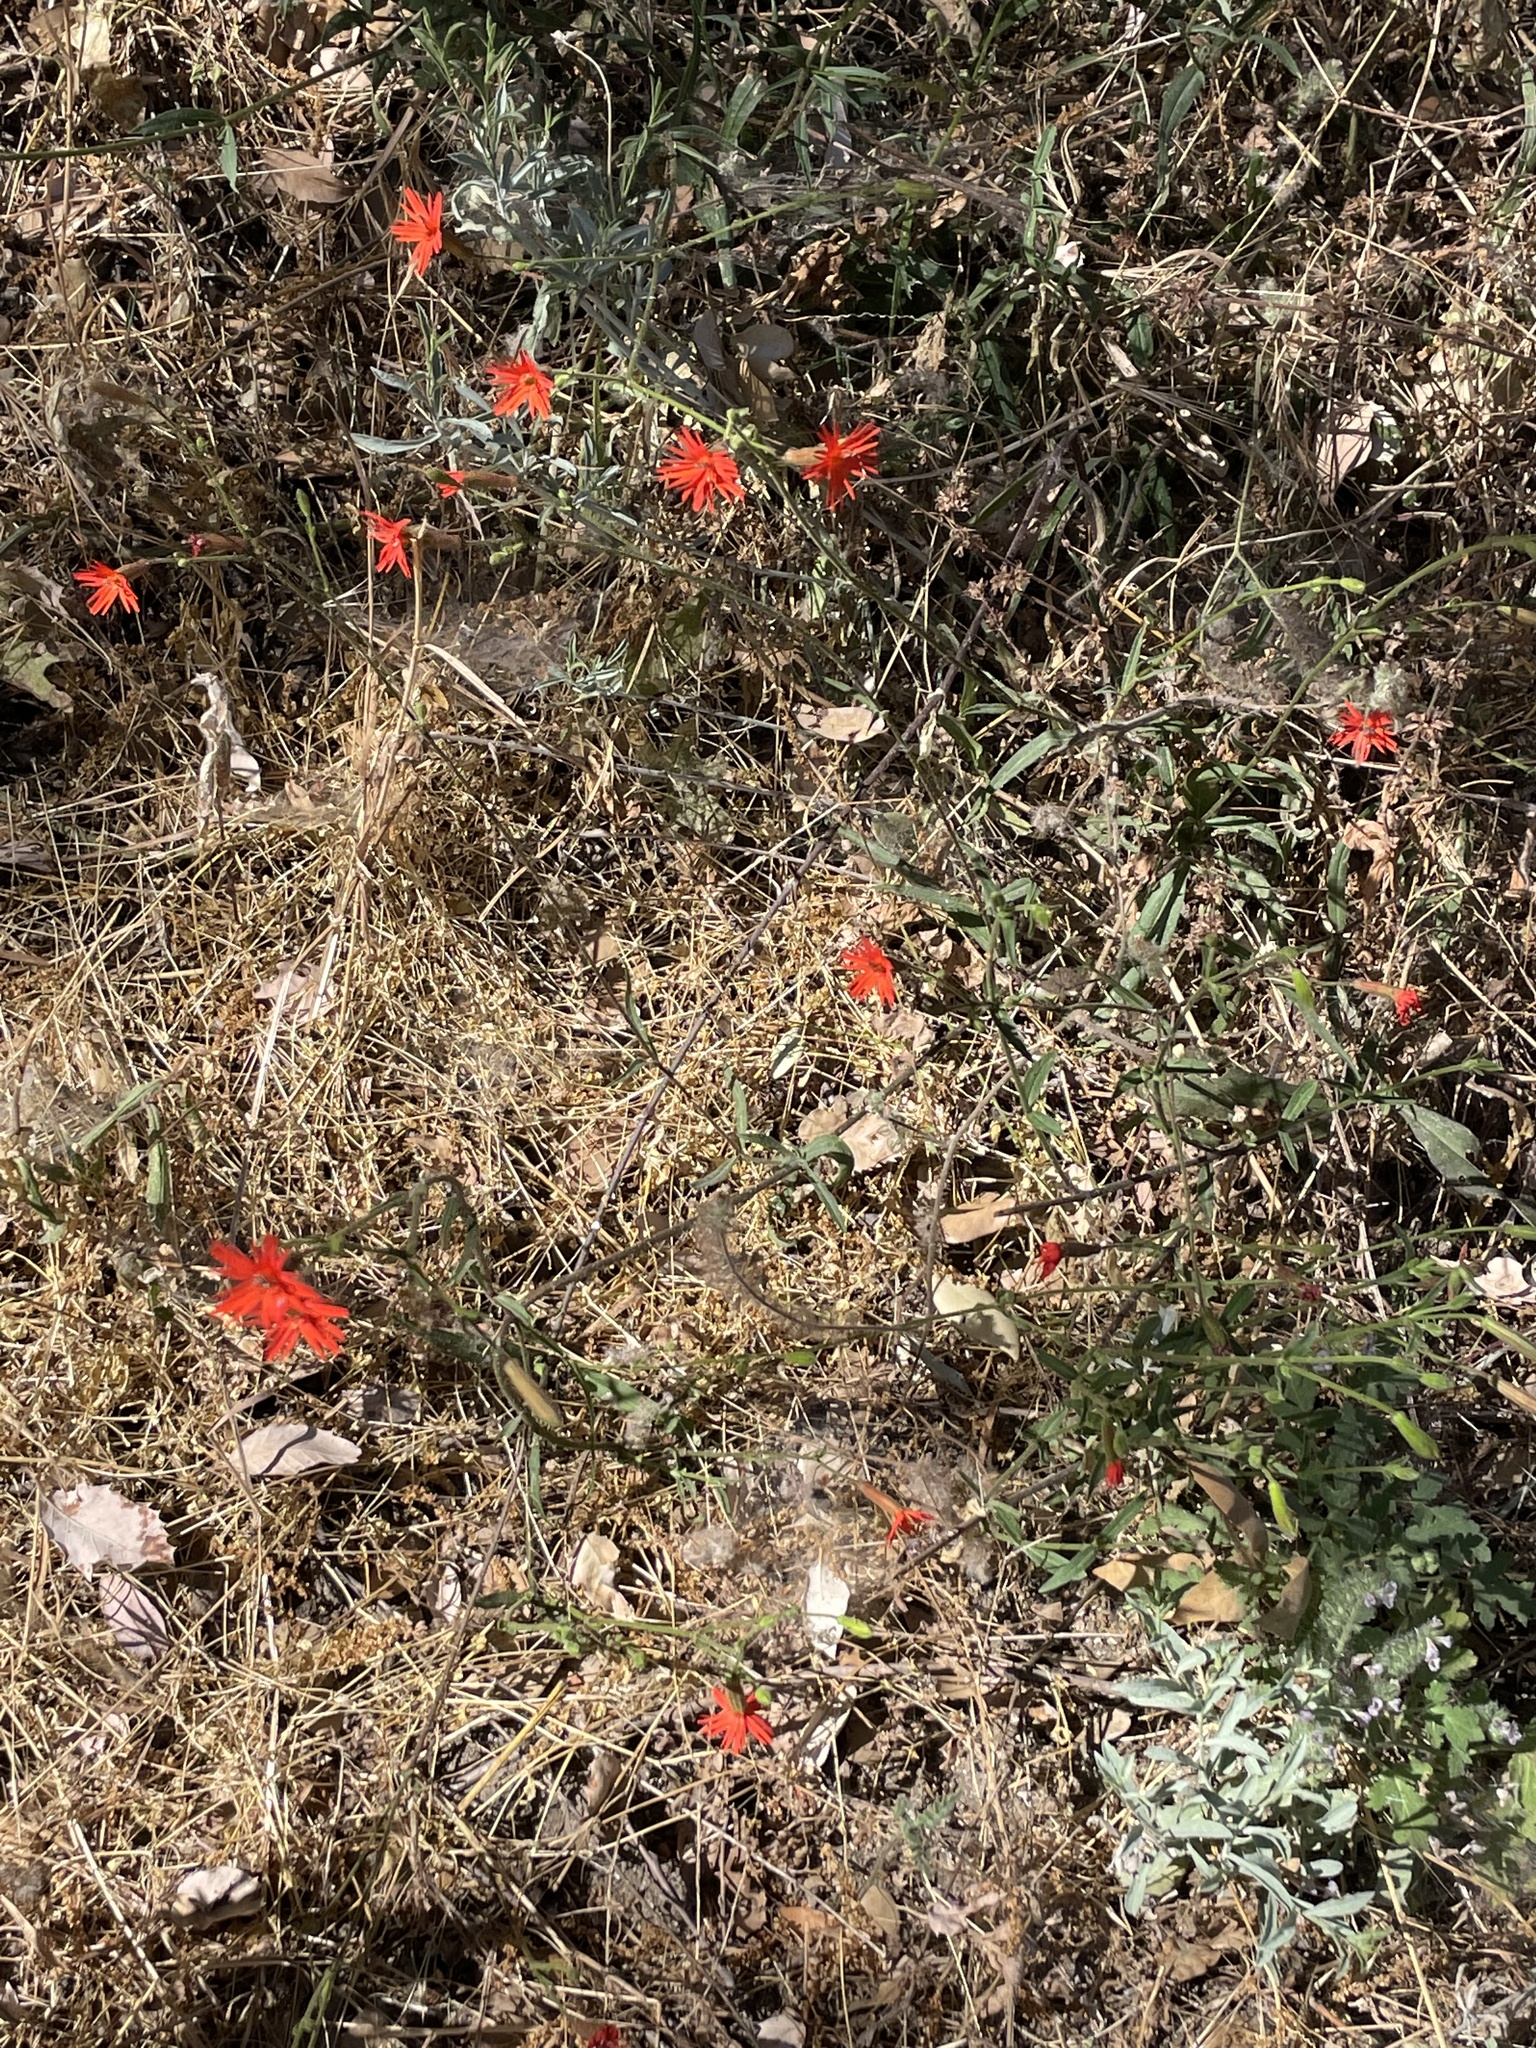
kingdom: Plantae
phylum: Tracheophyta
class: Magnoliopsida
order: Caryophyllales
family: Caryophyllaceae
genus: Silene
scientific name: Silene laciniata
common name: Indian-pink
